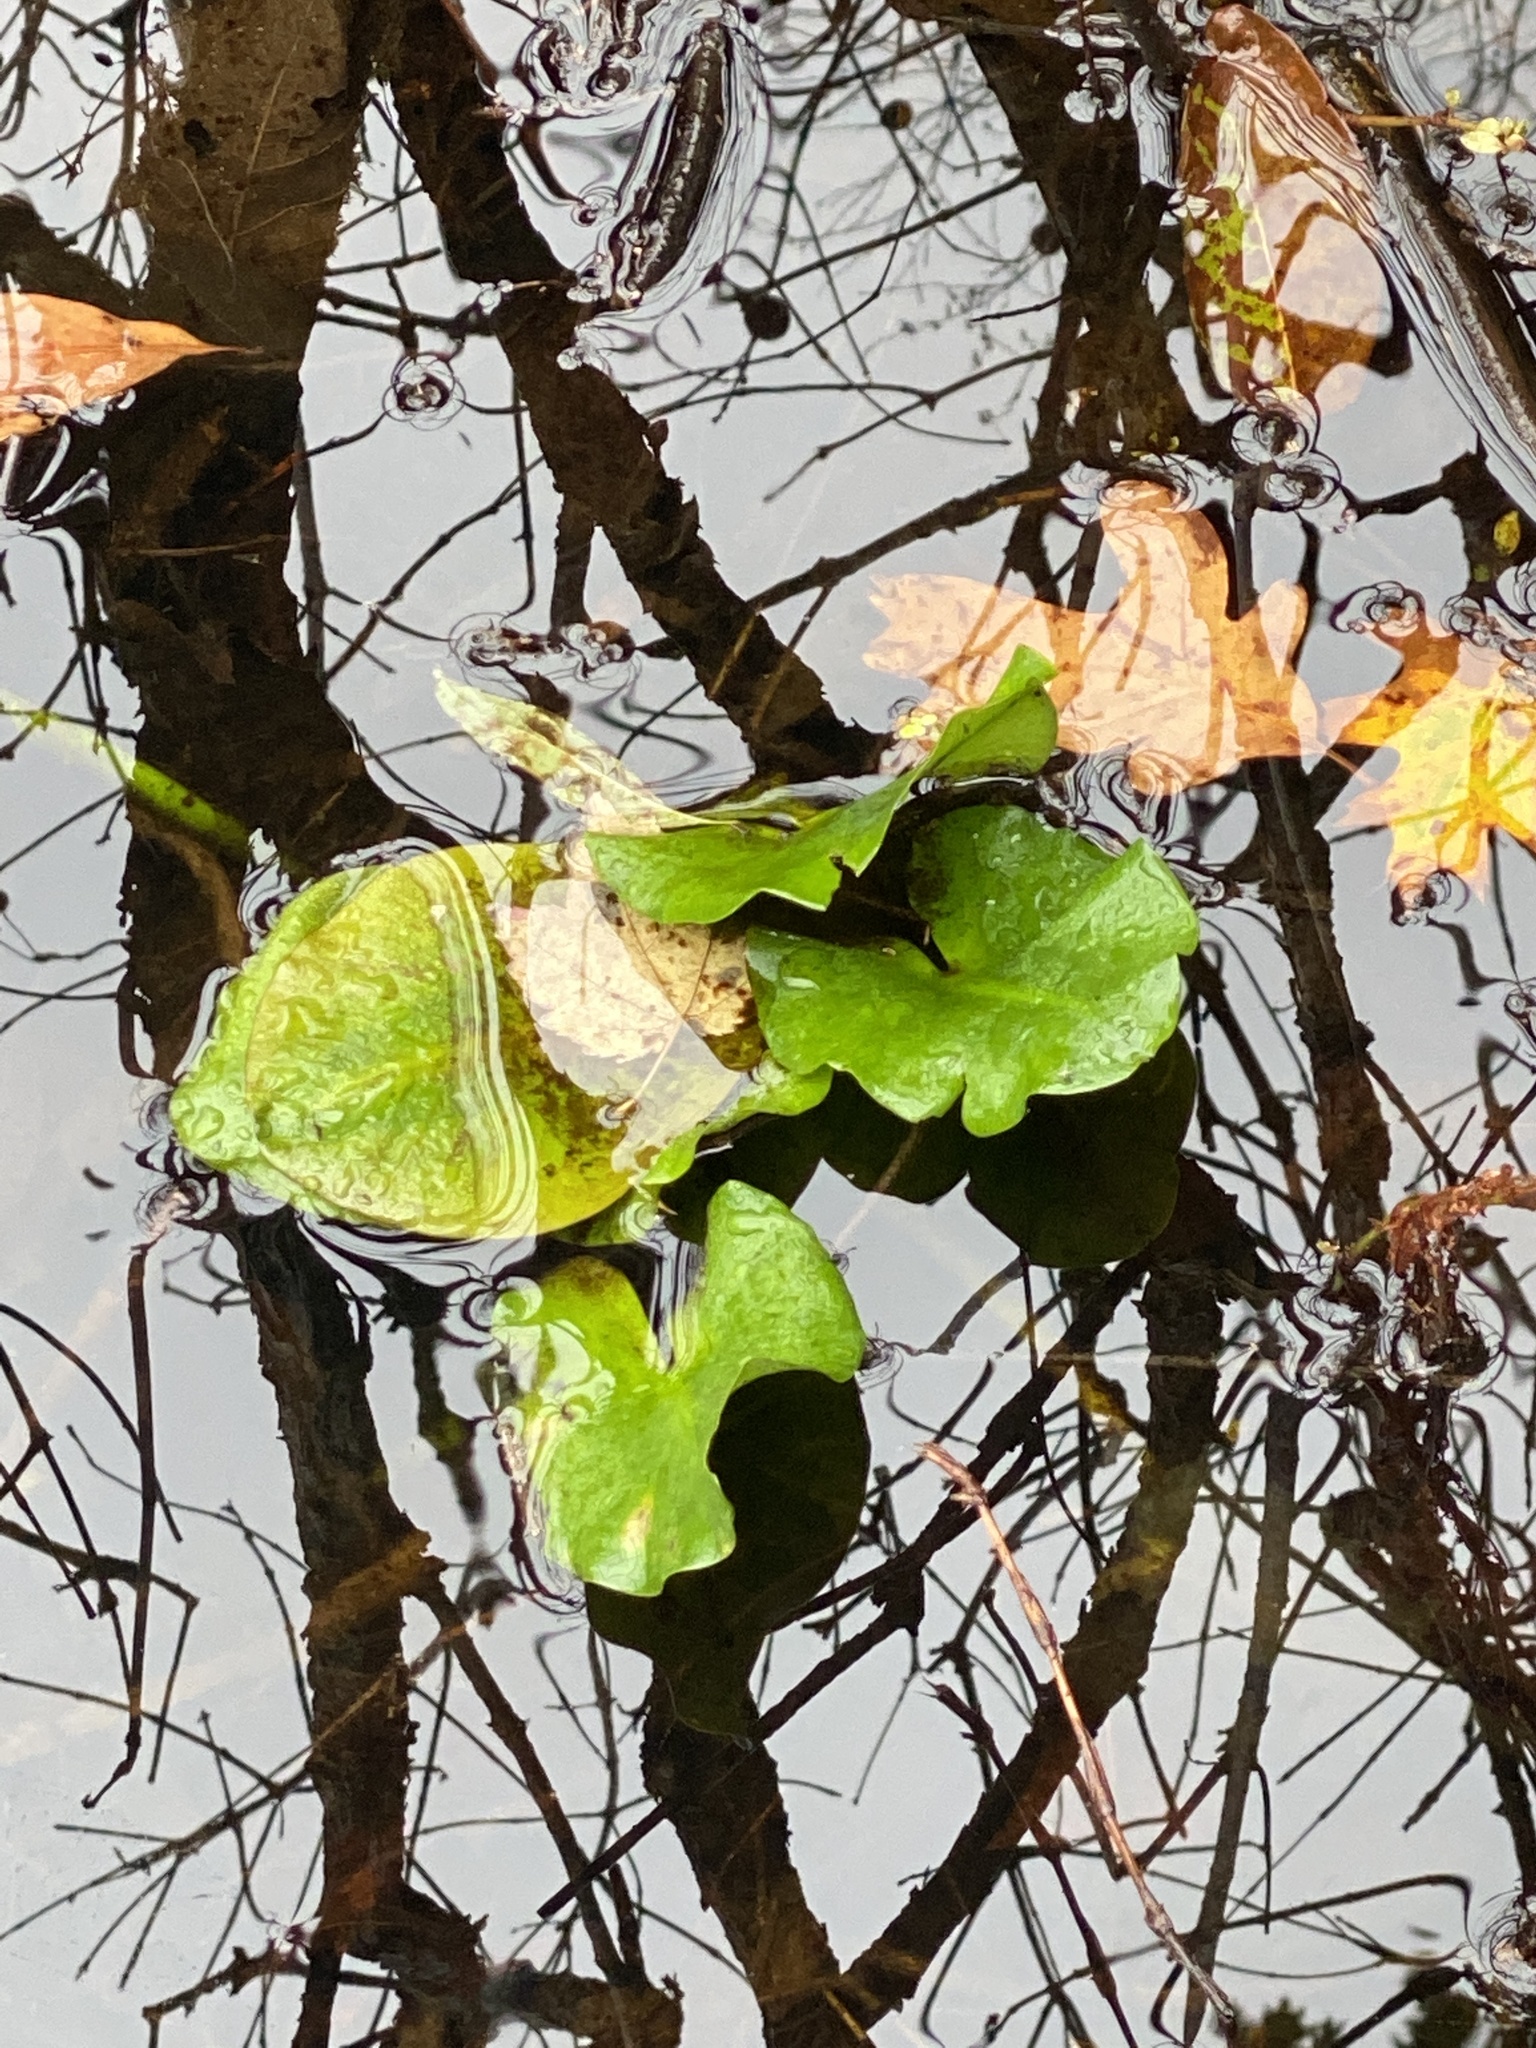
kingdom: Plantae
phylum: Tracheophyta
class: Magnoliopsida
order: Nymphaeales
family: Nymphaeaceae
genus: Nuphar
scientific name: Nuphar advena
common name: Spatter-dock
